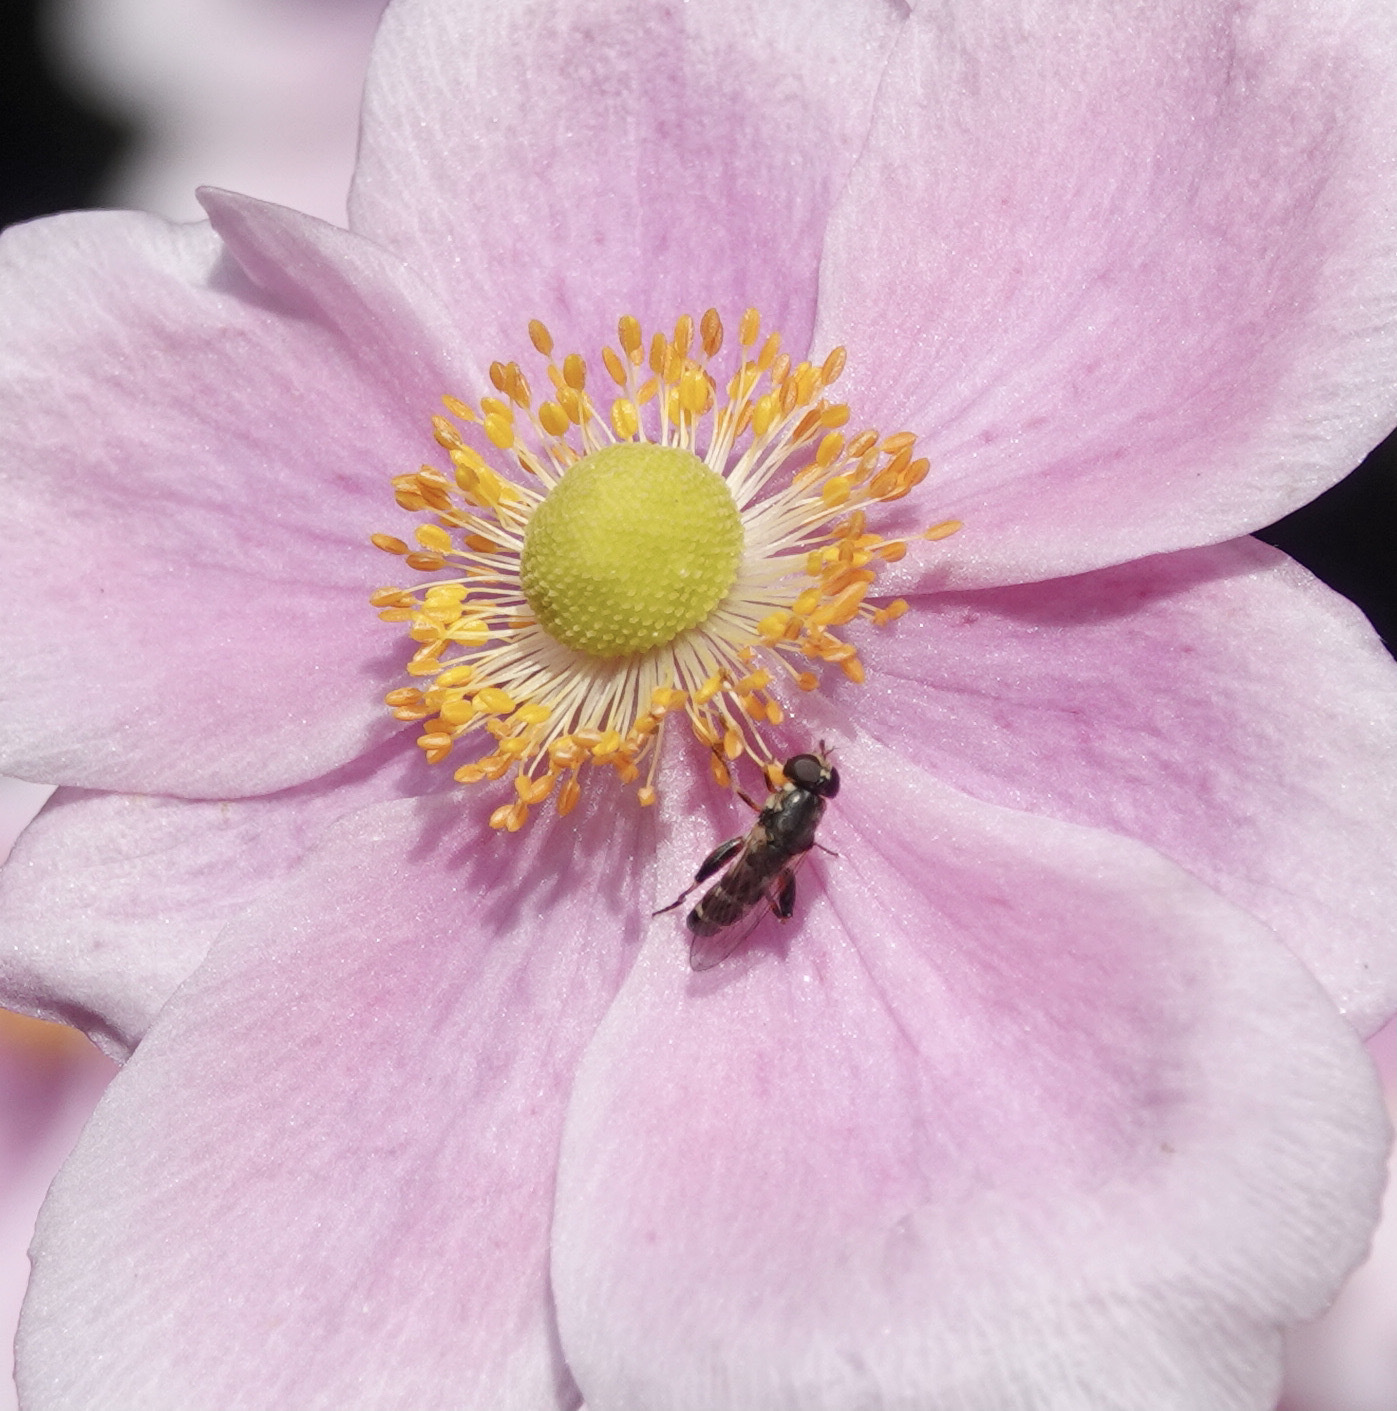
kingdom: Animalia
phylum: Arthropoda
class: Insecta
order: Diptera
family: Syrphidae
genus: Syritta
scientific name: Syritta pipiens
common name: Hover fly
